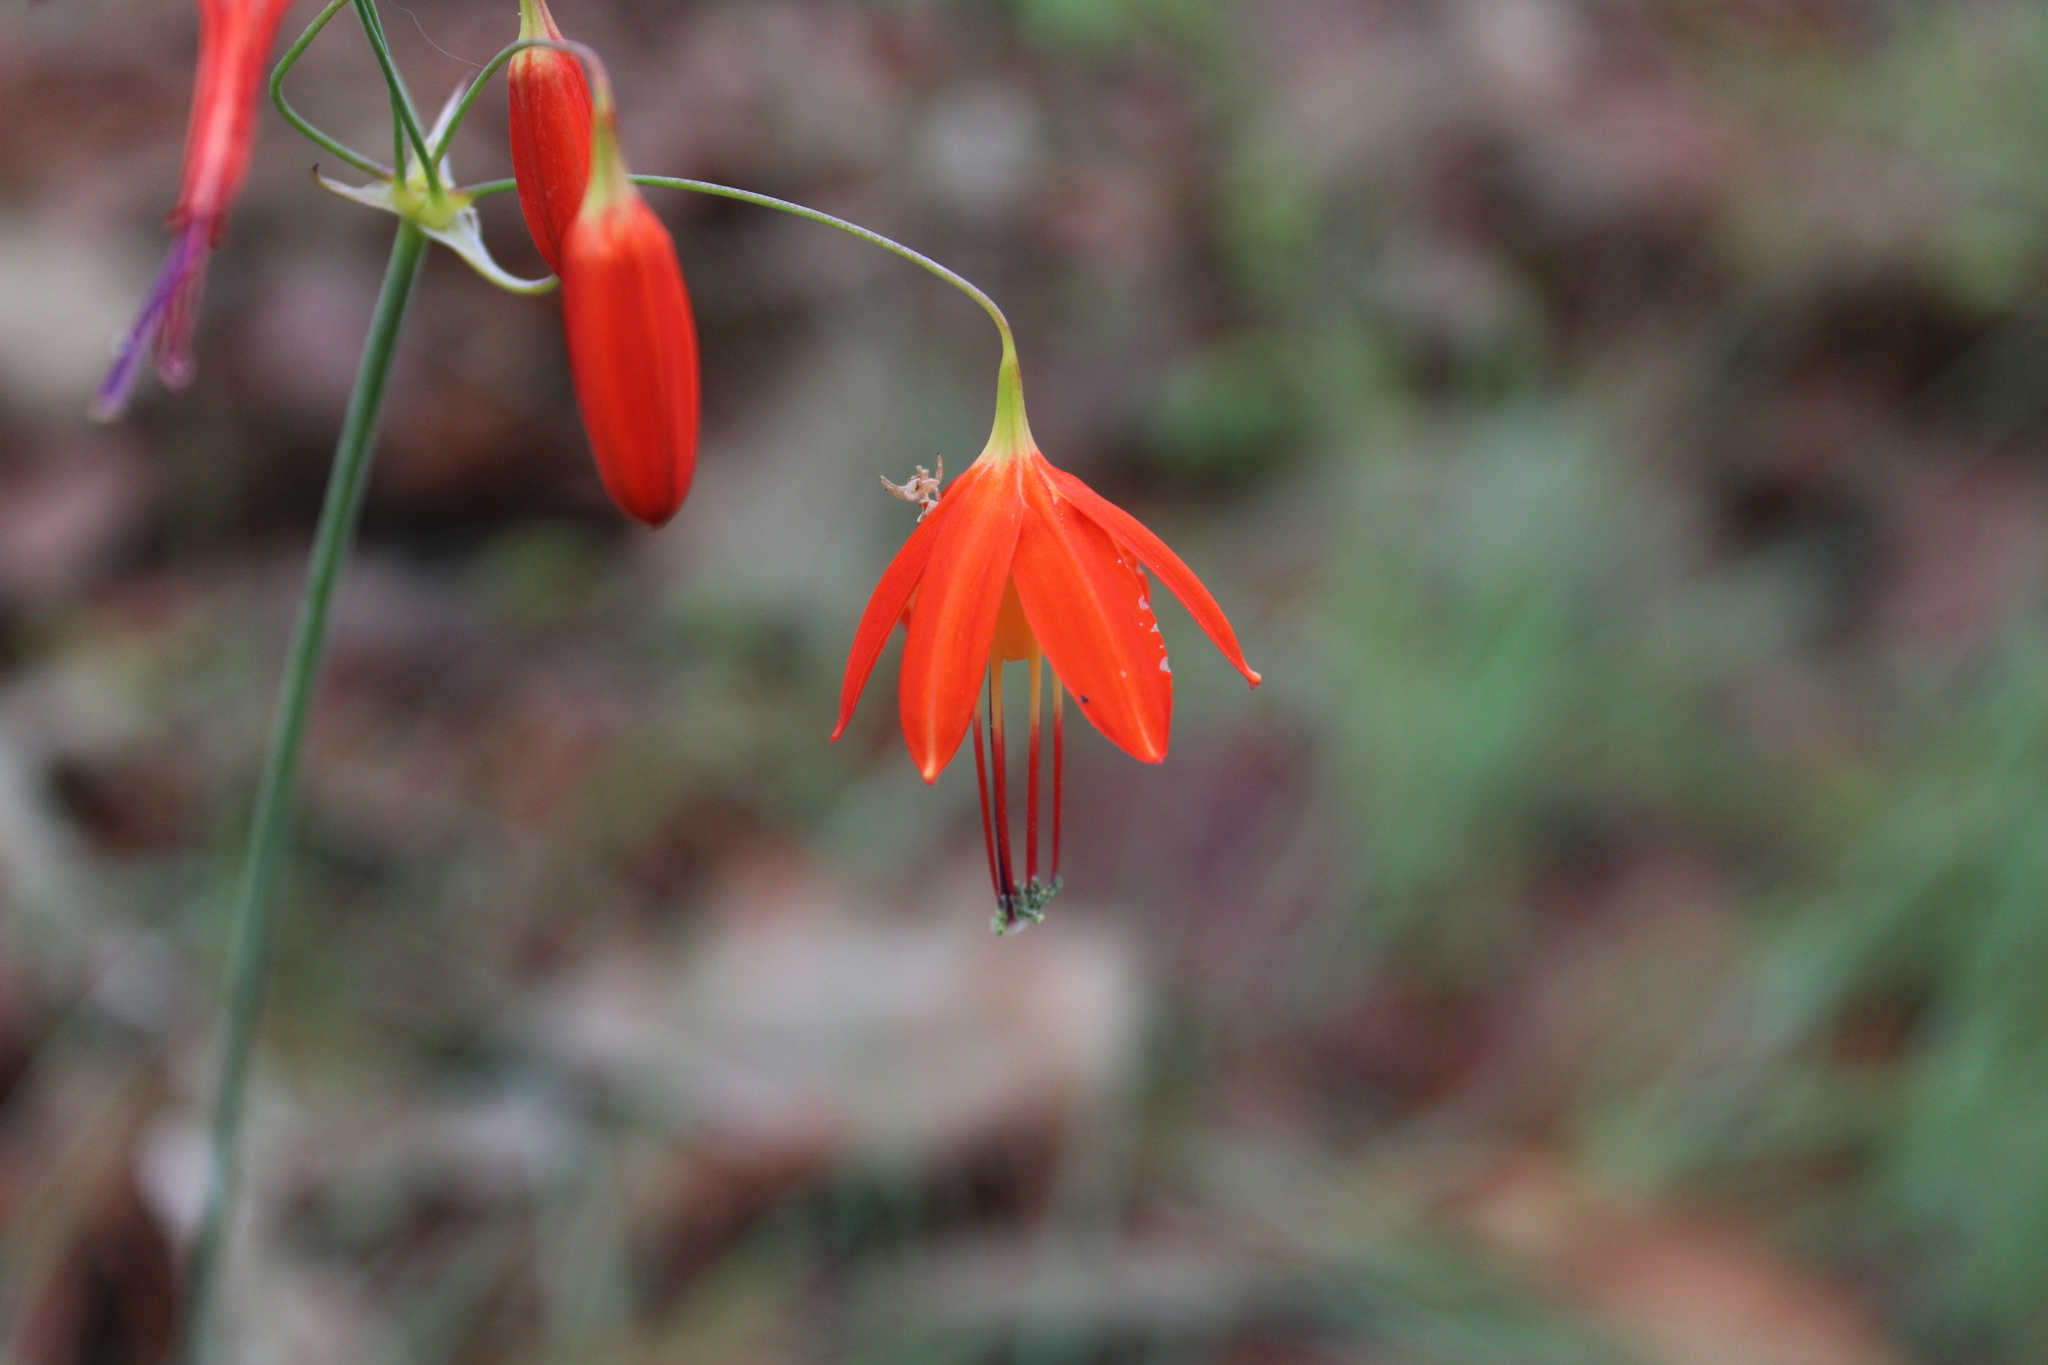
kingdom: Plantae
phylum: Tracheophyta
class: Liliopsida
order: Asparagales
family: Asparagaceae
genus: Bessera
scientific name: Bessera elegans
